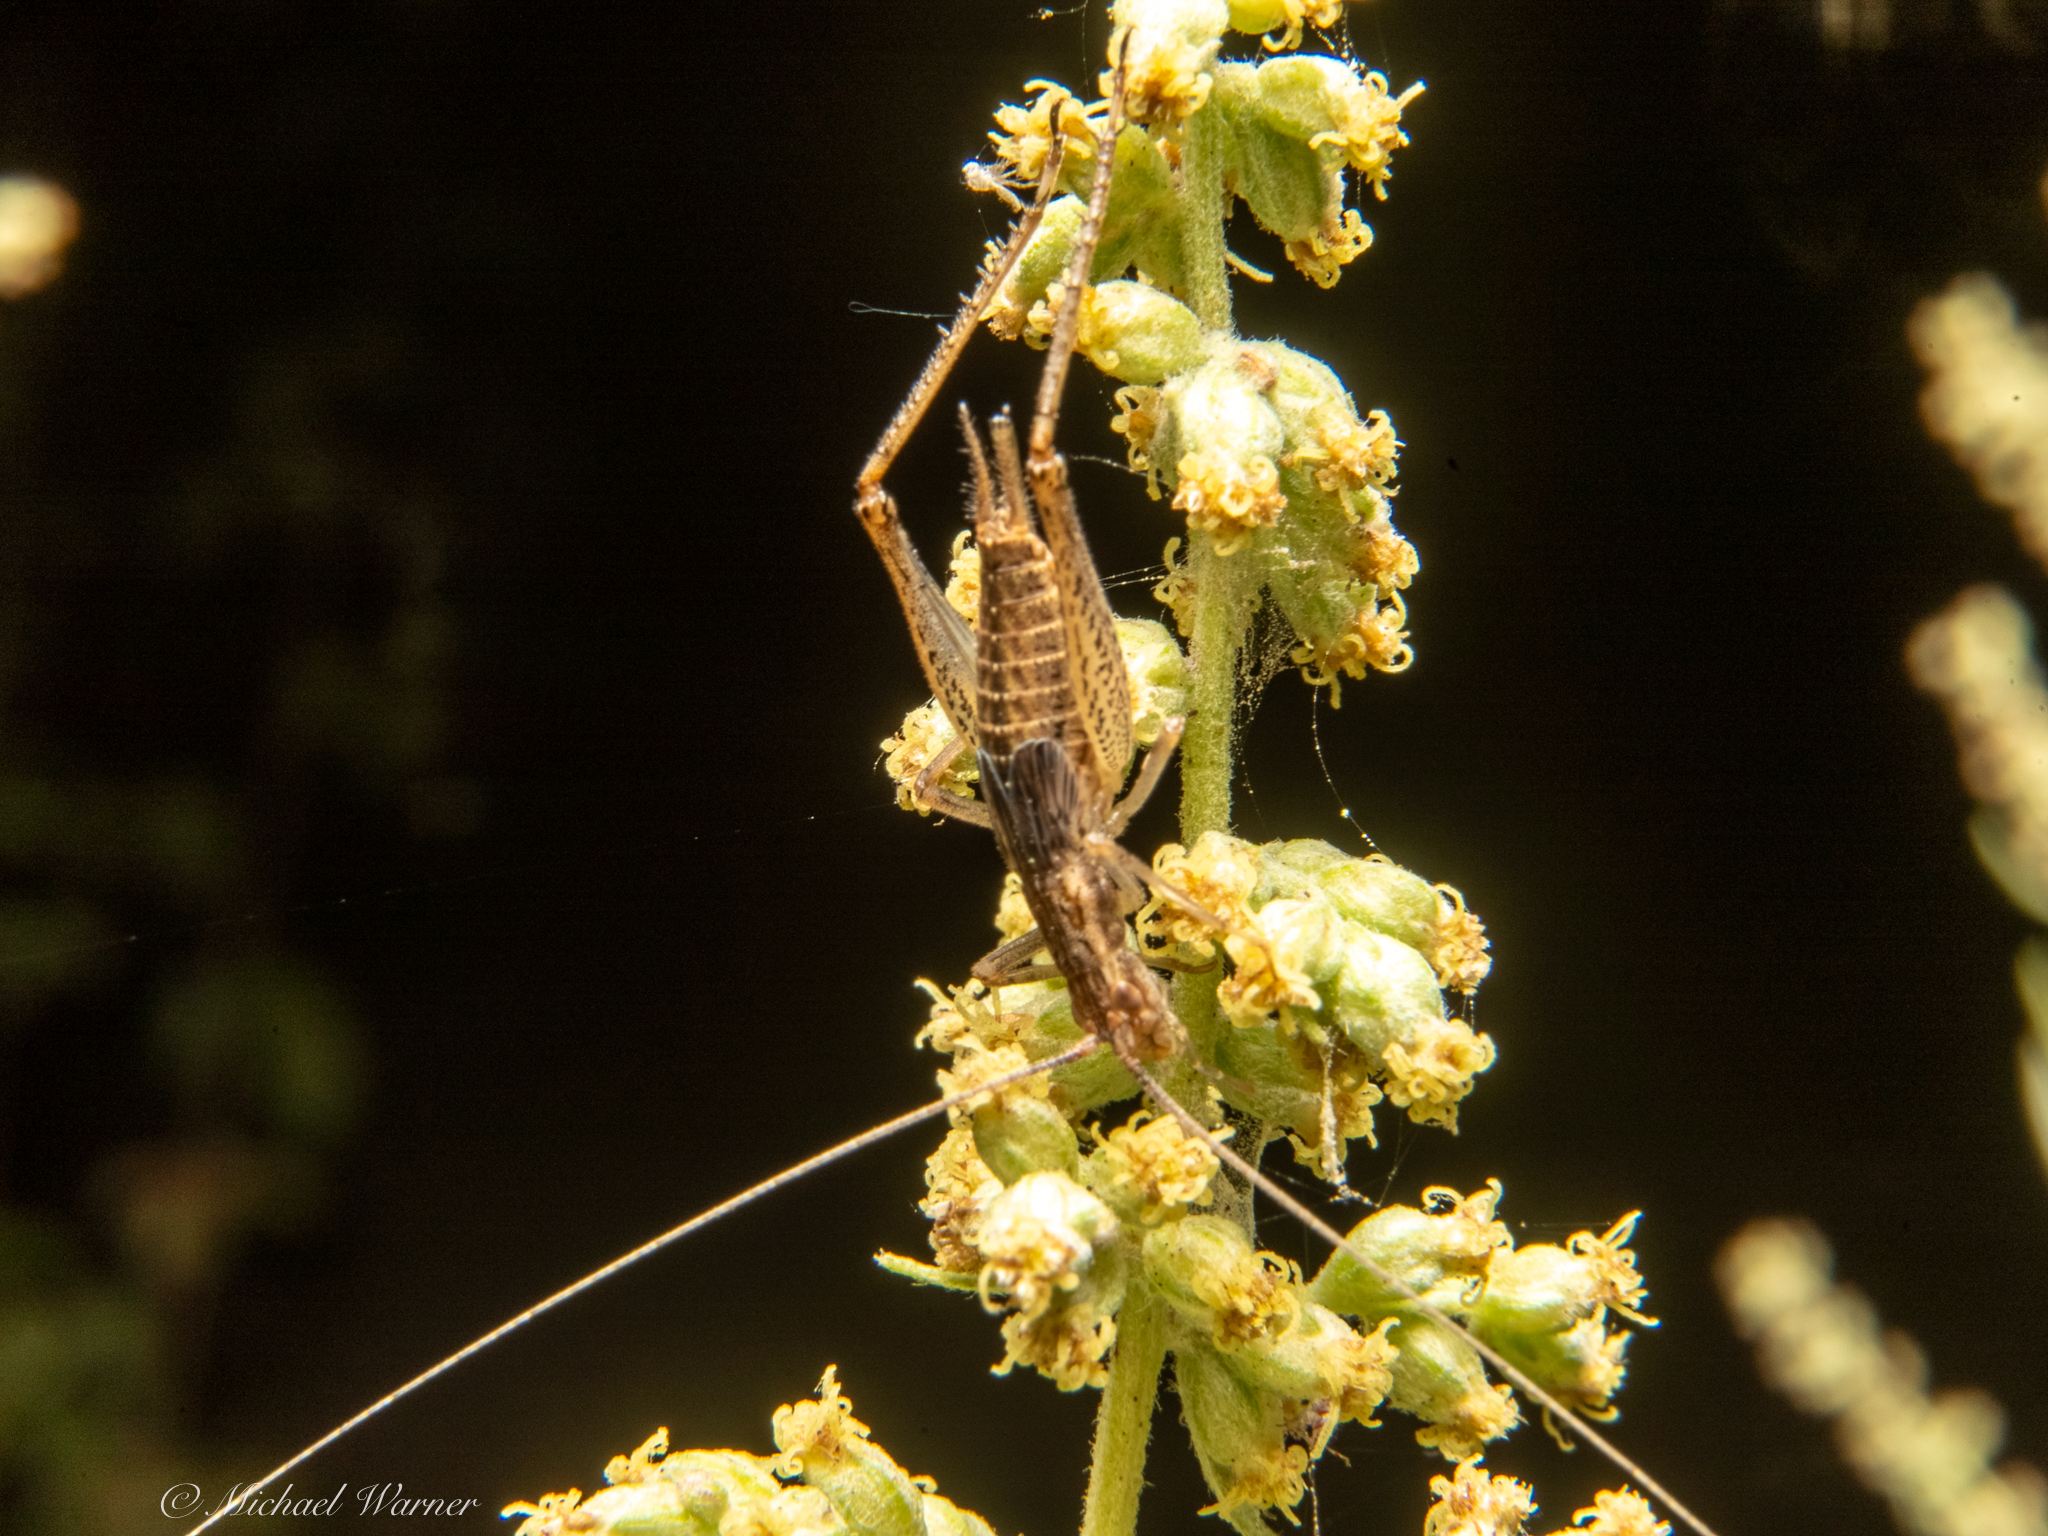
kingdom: Animalia
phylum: Arthropoda
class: Insecta
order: Orthoptera
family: Gryllidae
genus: Oecanthus
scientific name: Oecanthus californicus
